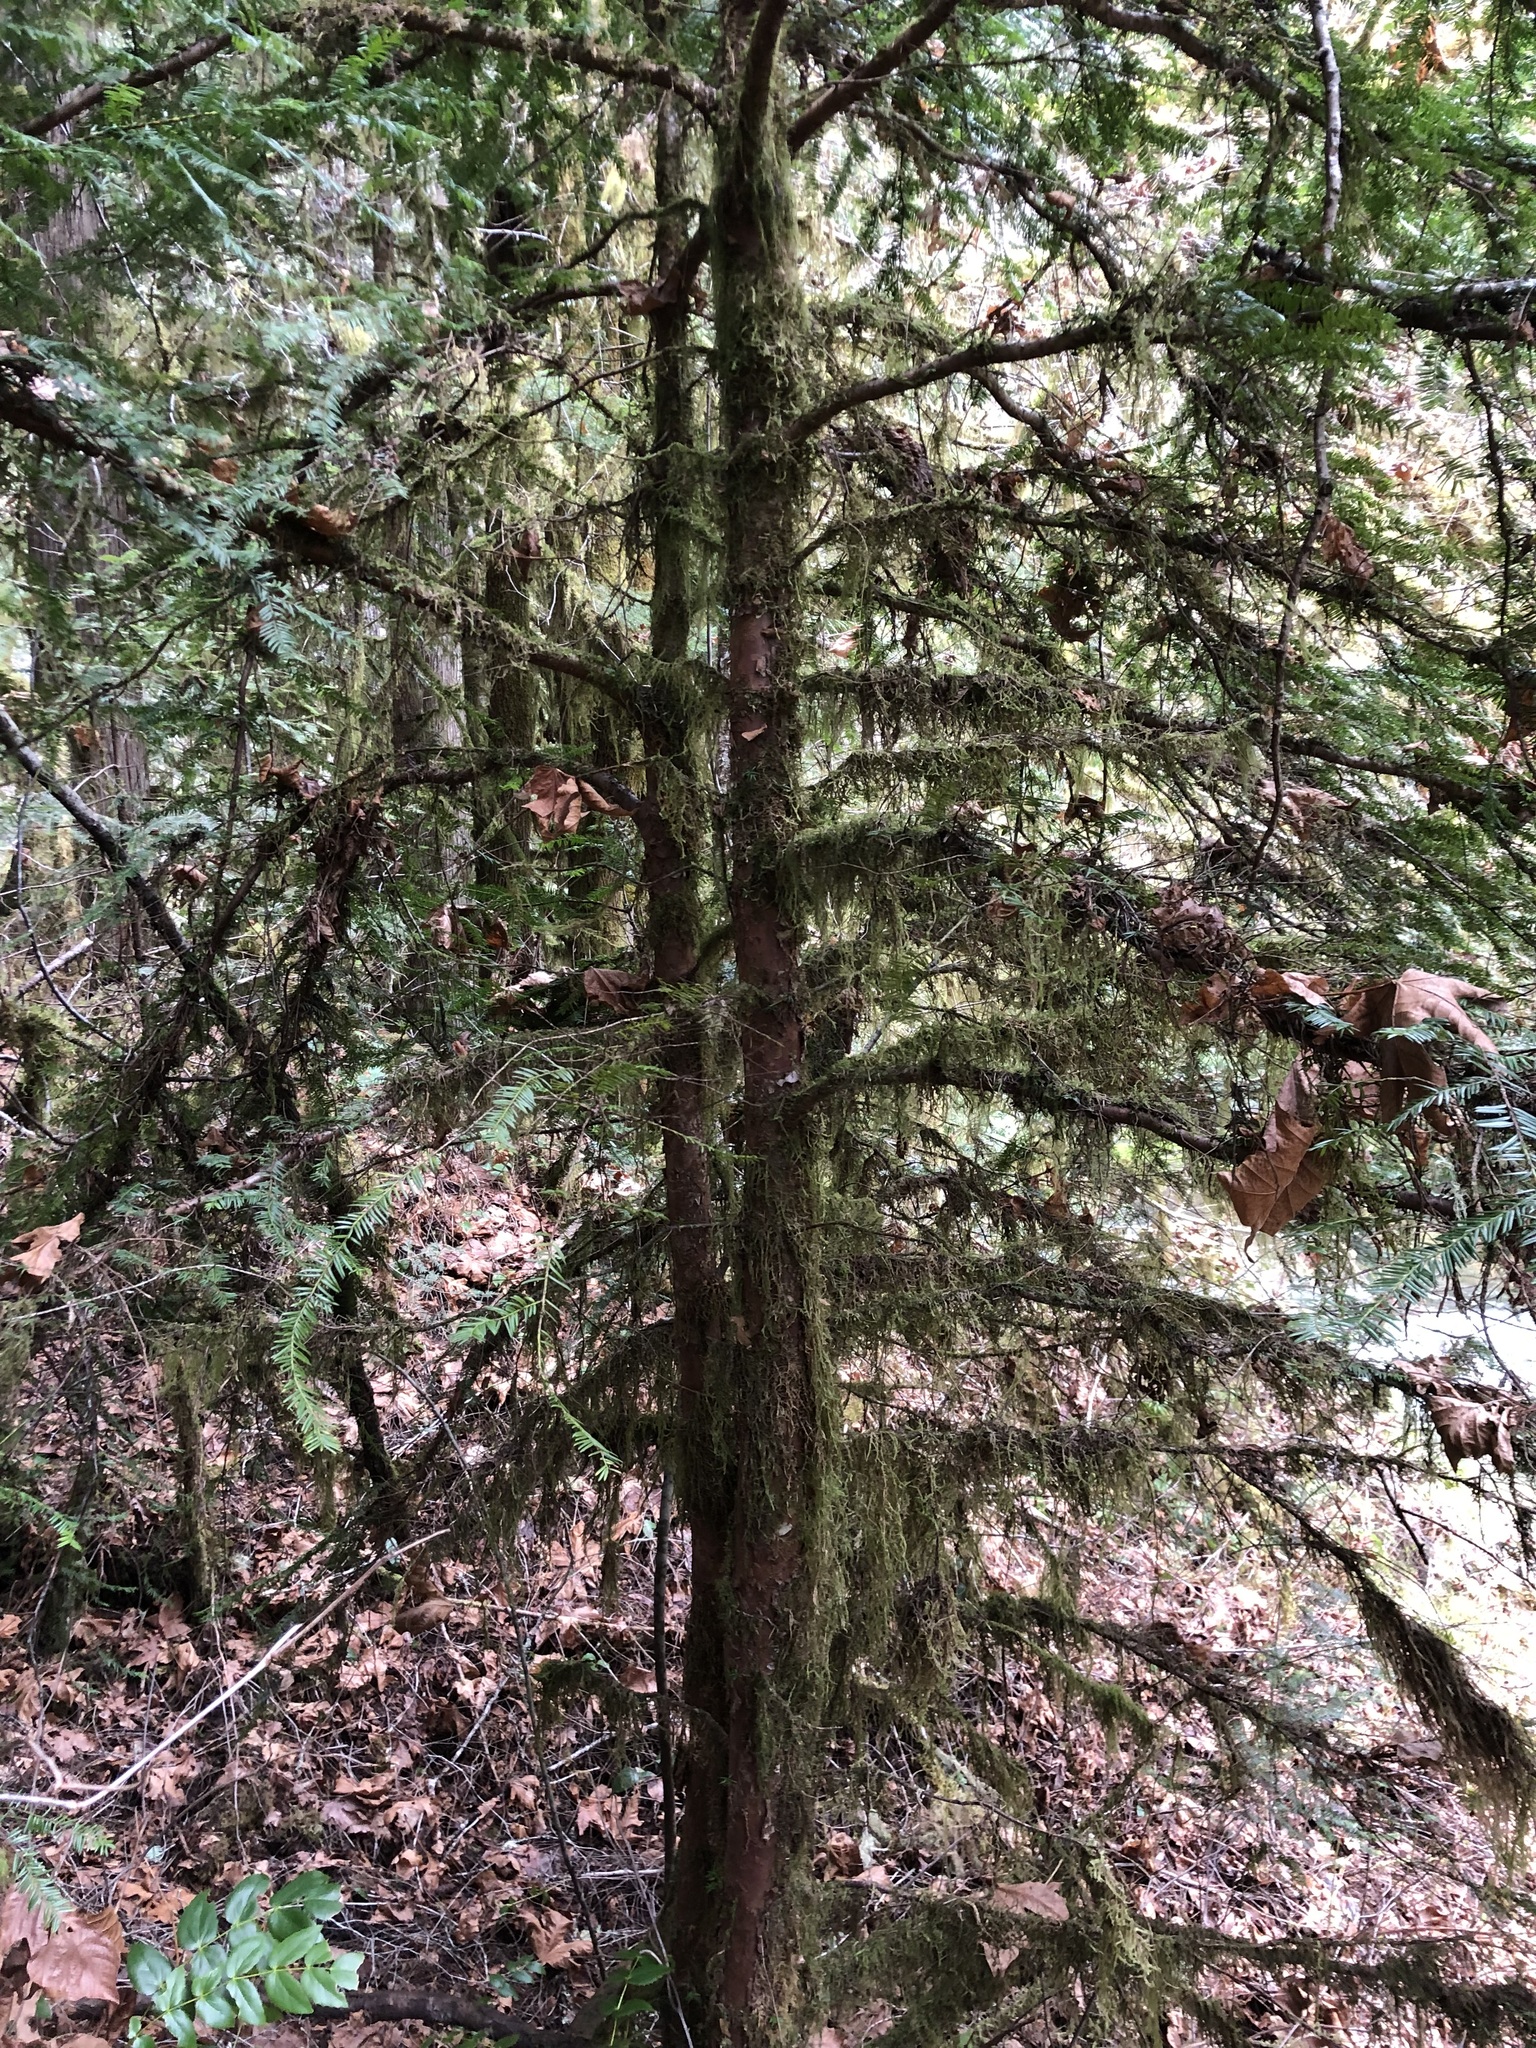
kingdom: Plantae
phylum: Tracheophyta
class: Pinopsida
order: Pinales
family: Taxaceae
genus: Taxus
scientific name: Taxus brevifolia
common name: Pacific yew
